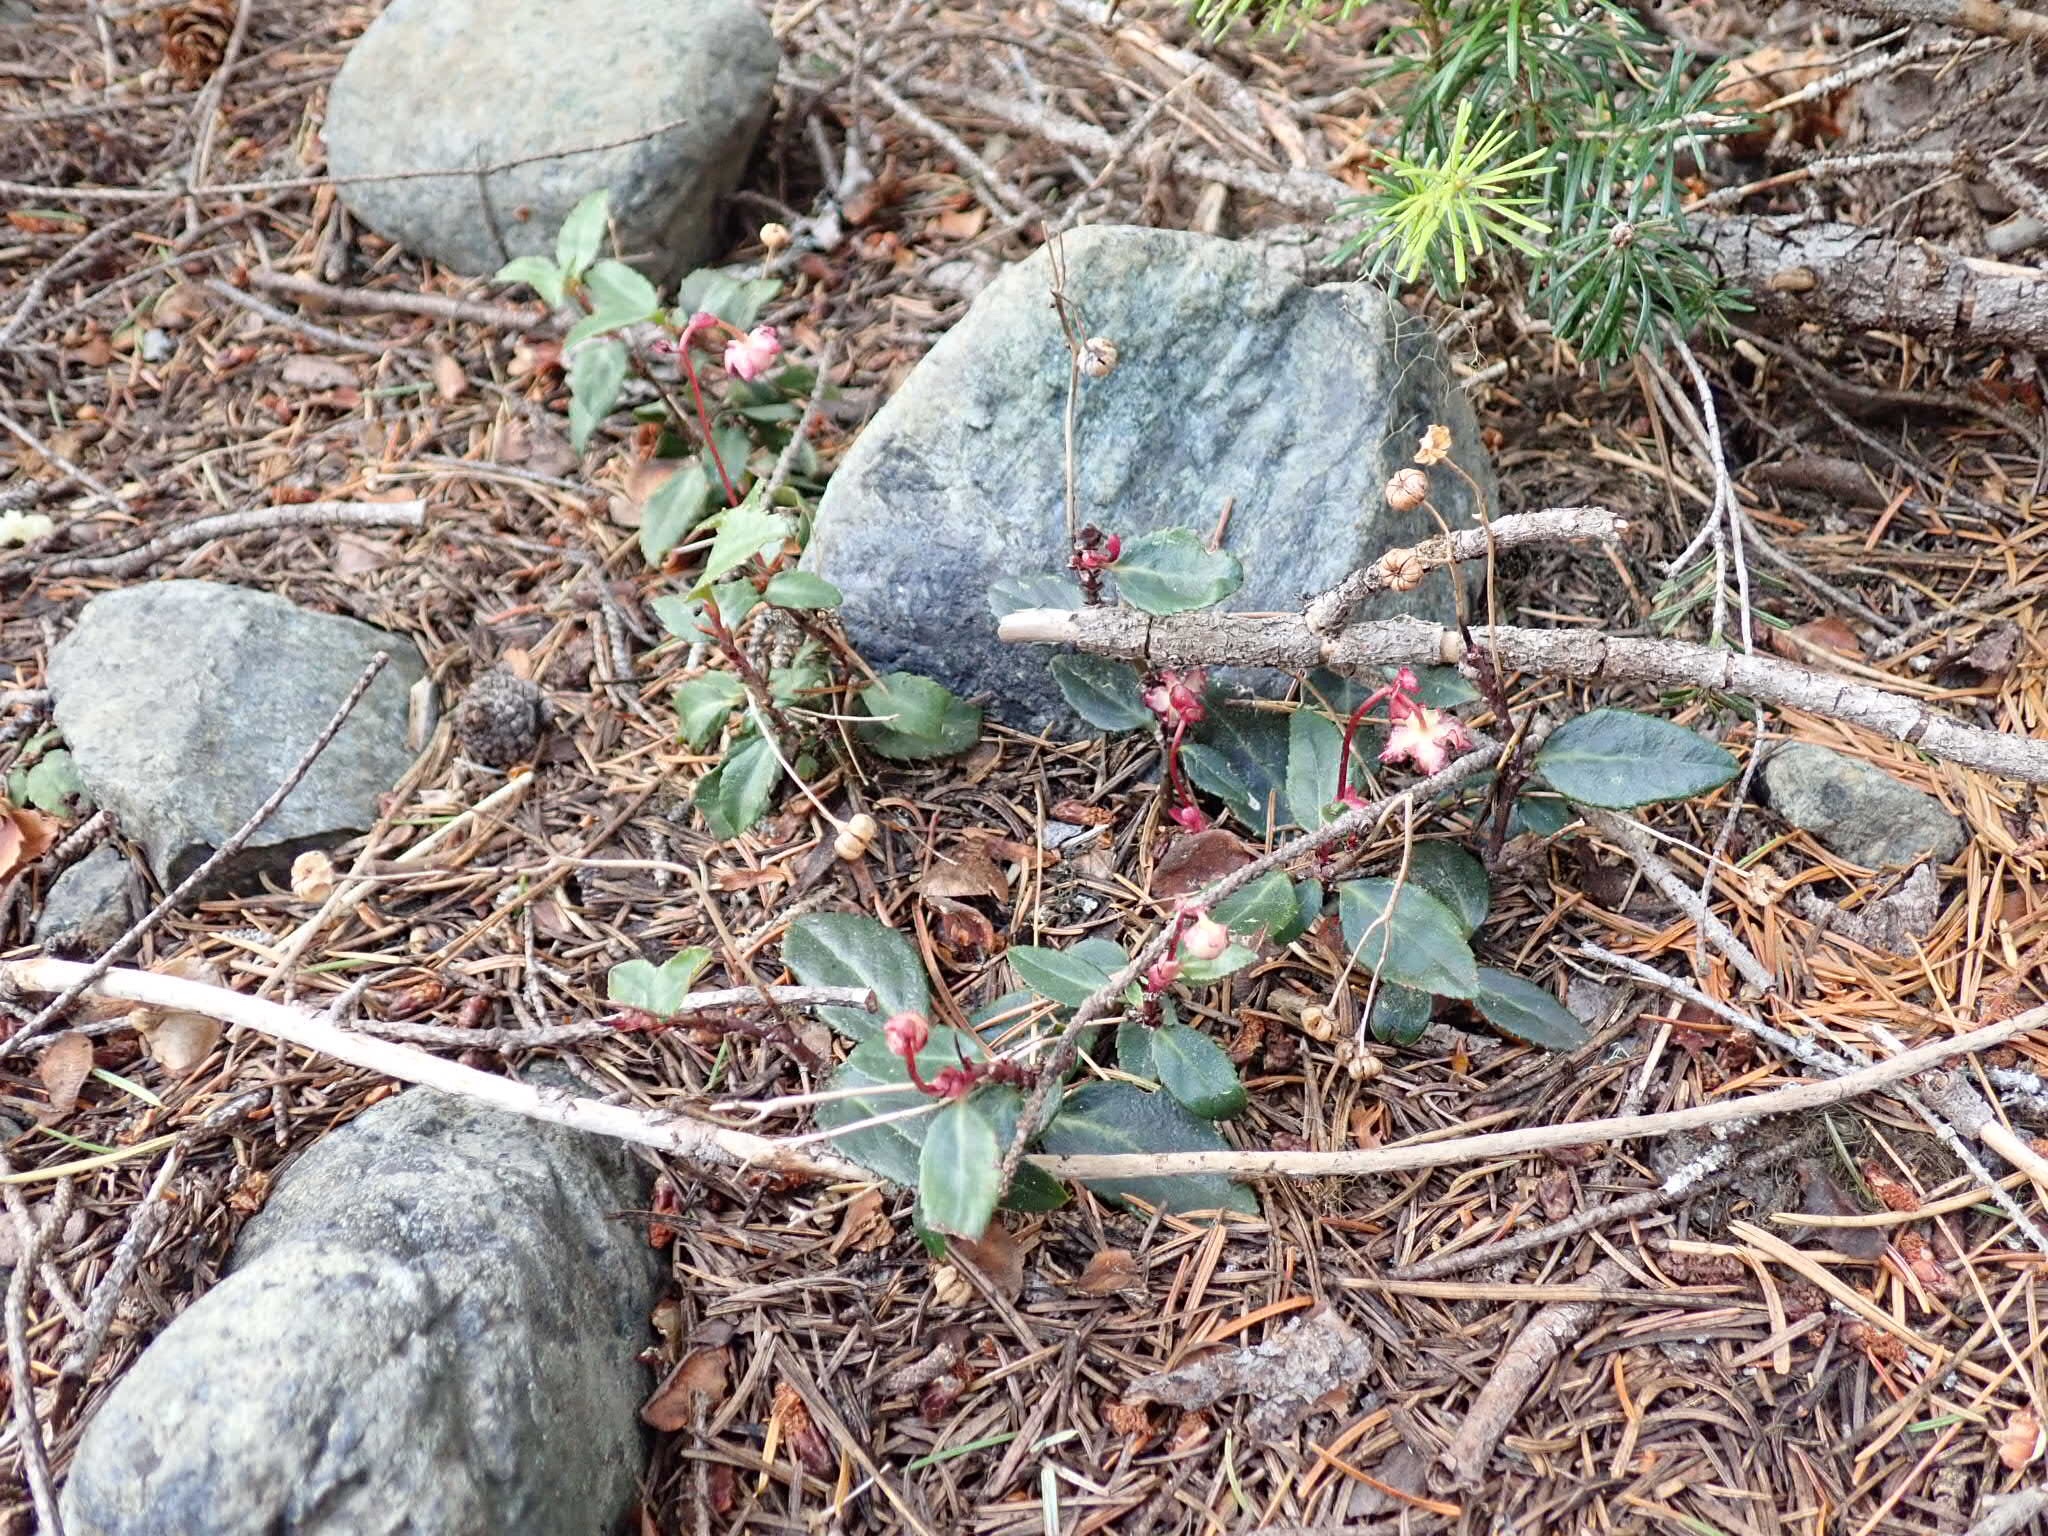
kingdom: Plantae
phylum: Tracheophyta
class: Magnoliopsida
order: Ericales
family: Ericaceae
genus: Chimaphila
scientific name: Chimaphila menziesii
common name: Menzies' pipsissewa
